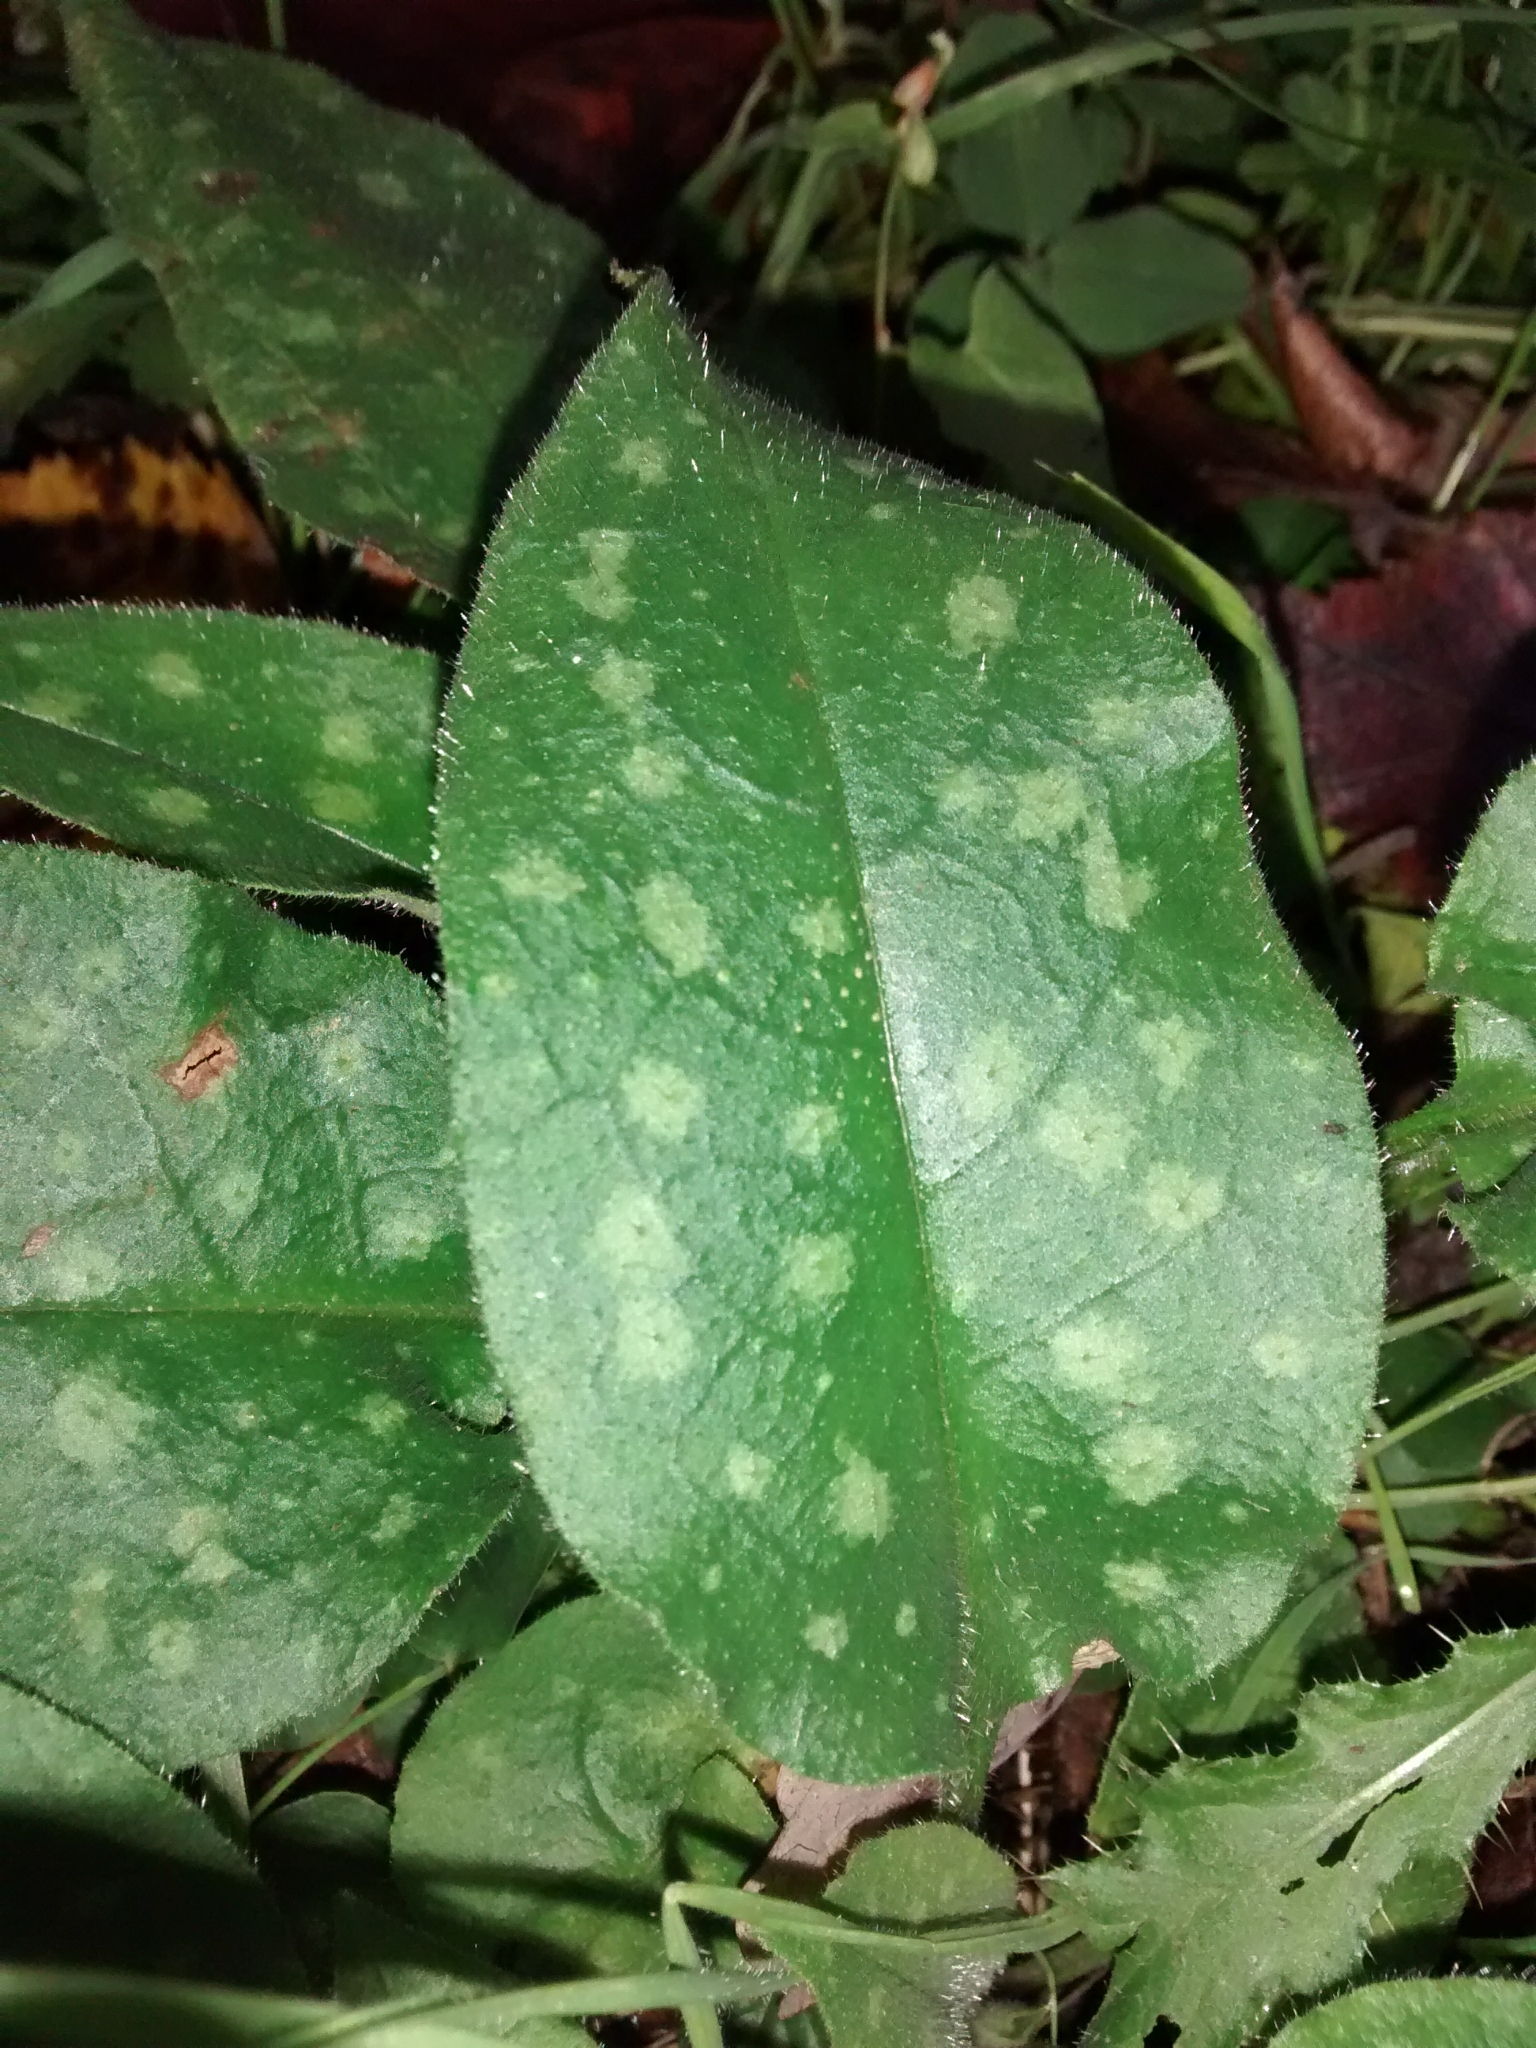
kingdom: Plantae
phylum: Tracheophyta
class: Magnoliopsida
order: Boraginales
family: Boraginaceae
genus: Pulmonaria
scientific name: Pulmonaria officinalis
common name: Lungwort
